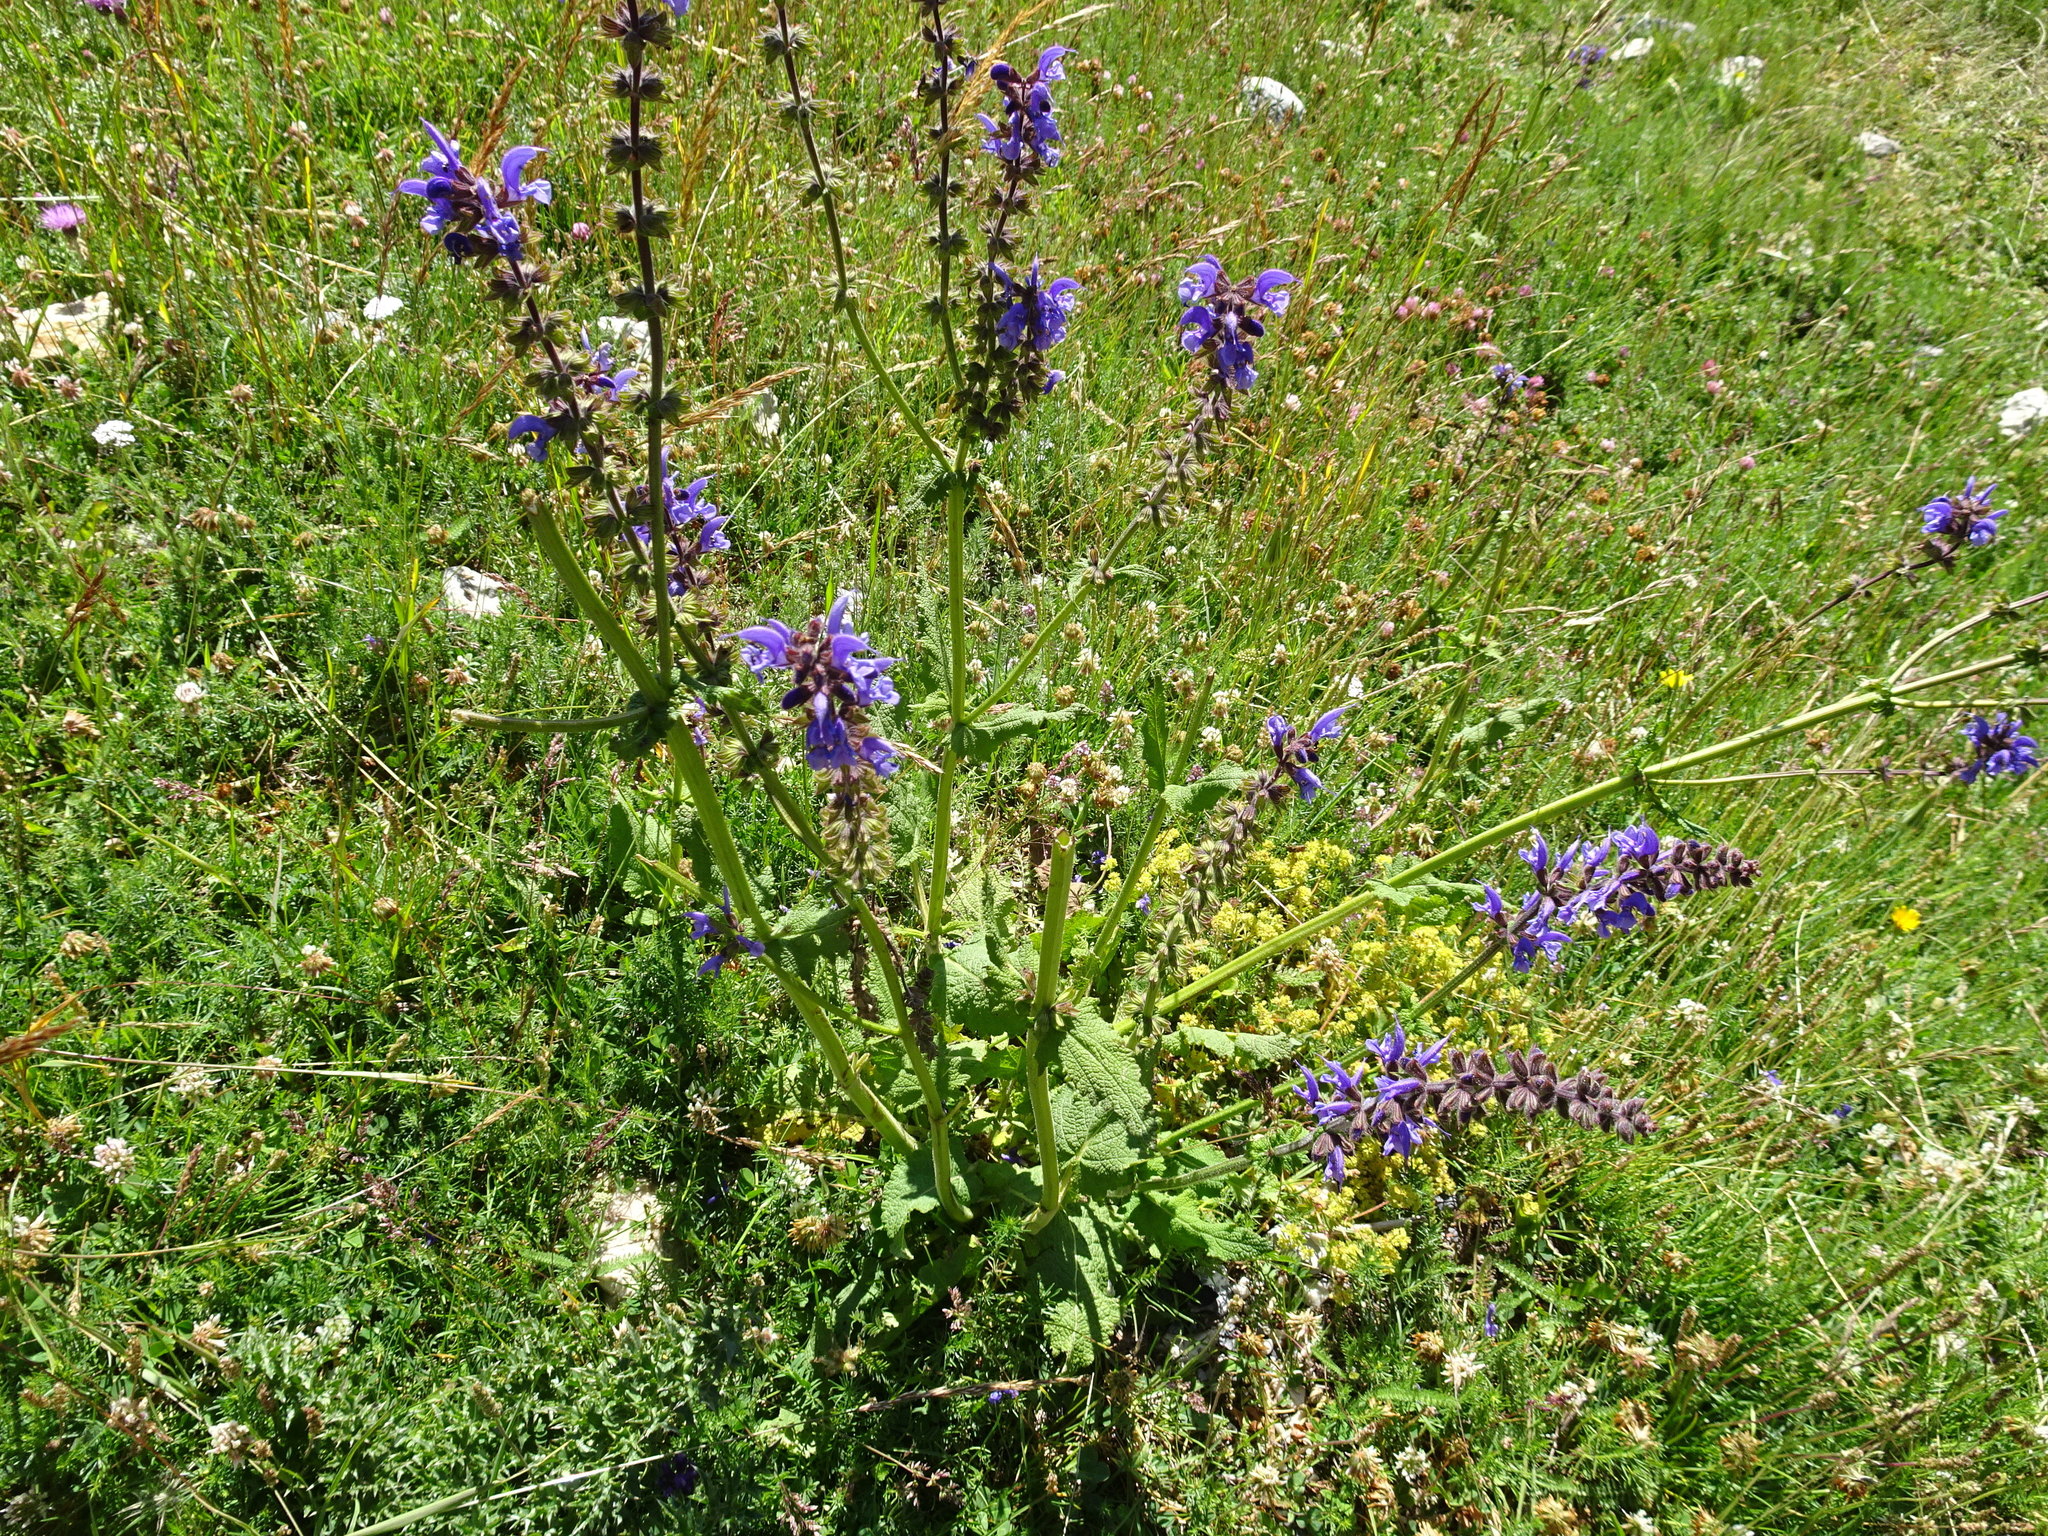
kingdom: Plantae
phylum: Tracheophyta
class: Magnoliopsida
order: Lamiales
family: Lamiaceae
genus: Salvia
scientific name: Salvia pratensis
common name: Meadow sage
